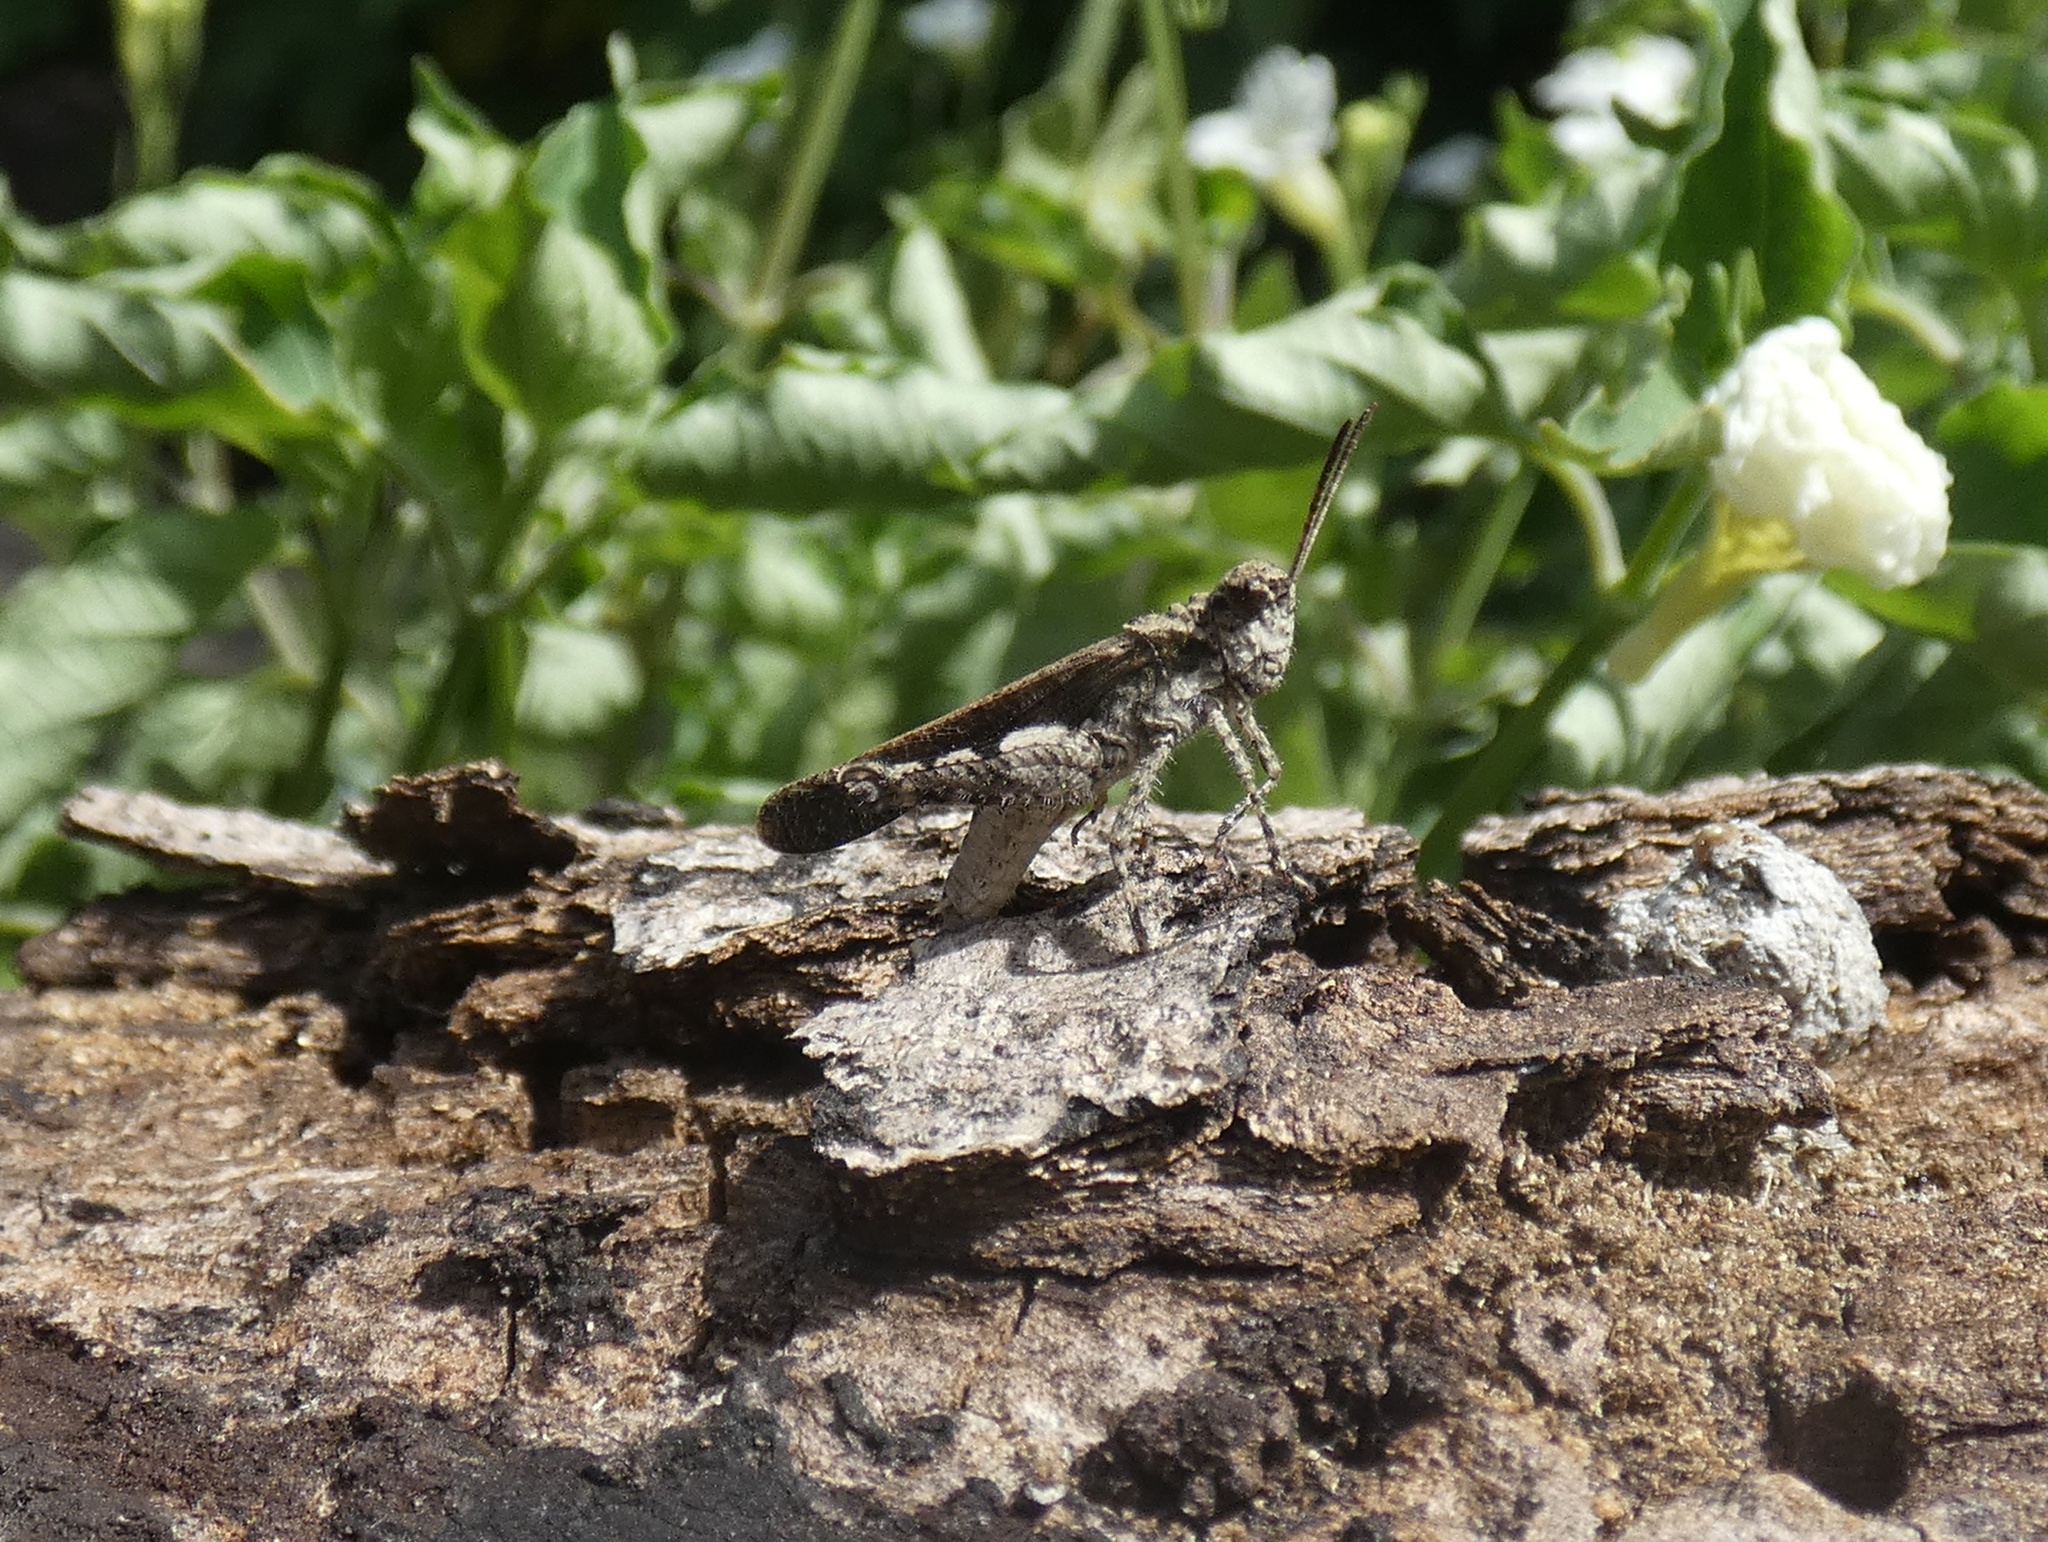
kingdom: Animalia
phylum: Arthropoda
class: Insecta
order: Orthoptera
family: Acrididae
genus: Trilophidia
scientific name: Trilophidia annulata
